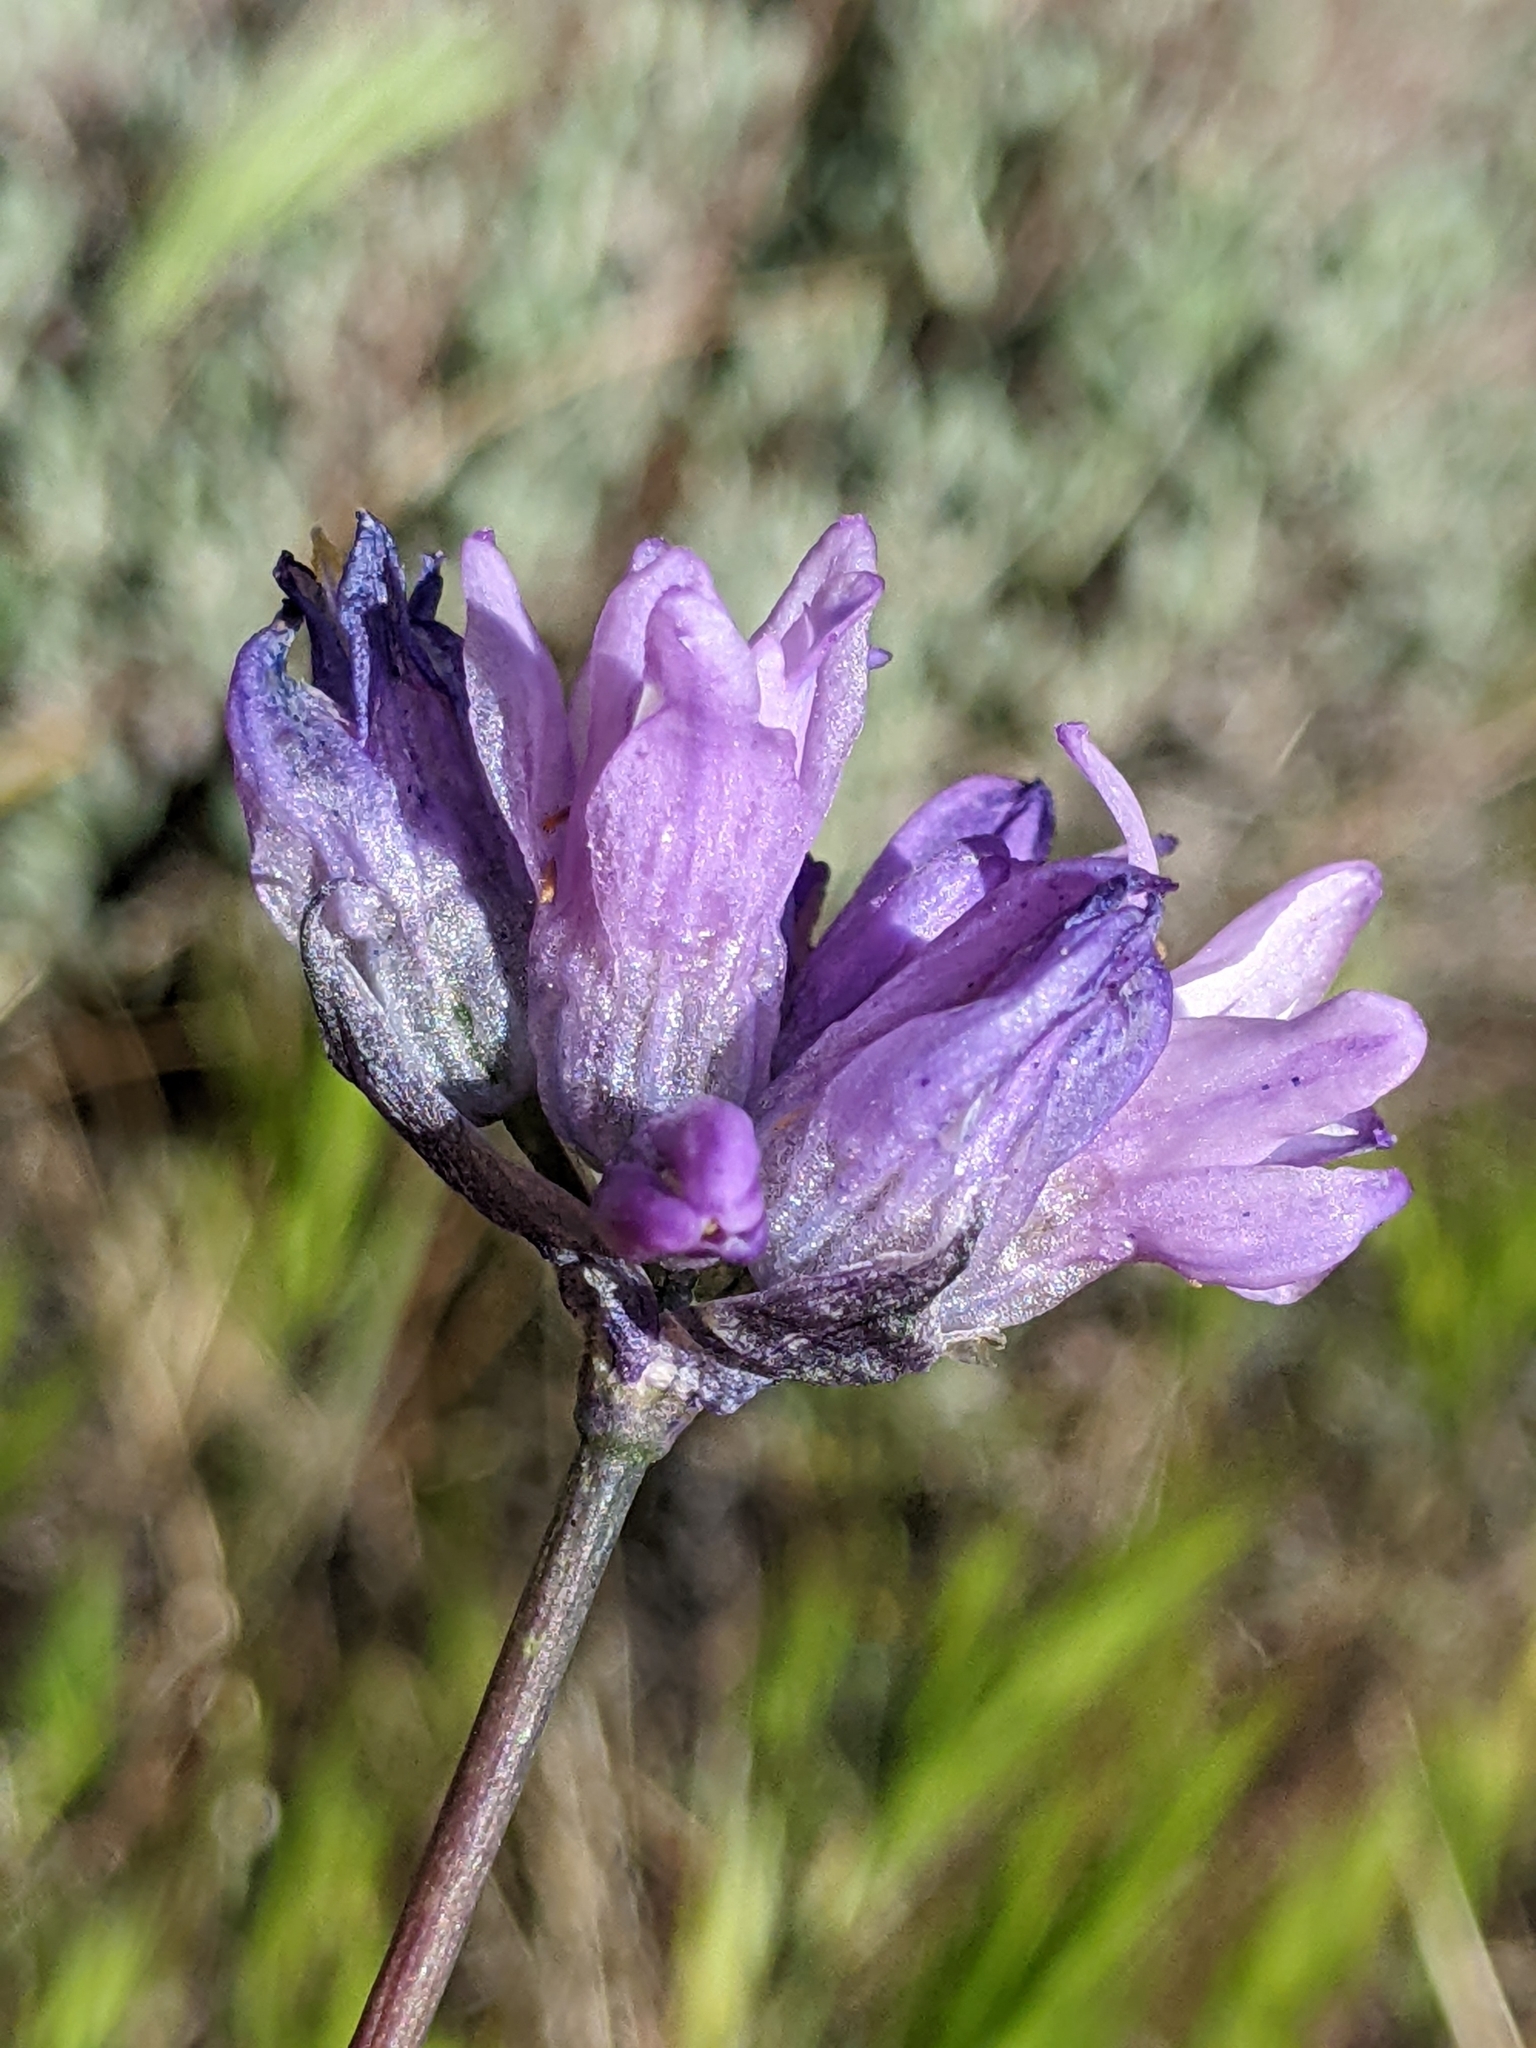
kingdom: Plantae
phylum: Tracheophyta
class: Liliopsida
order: Asparagales
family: Asparagaceae
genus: Dipterostemon
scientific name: Dipterostemon capitatus
